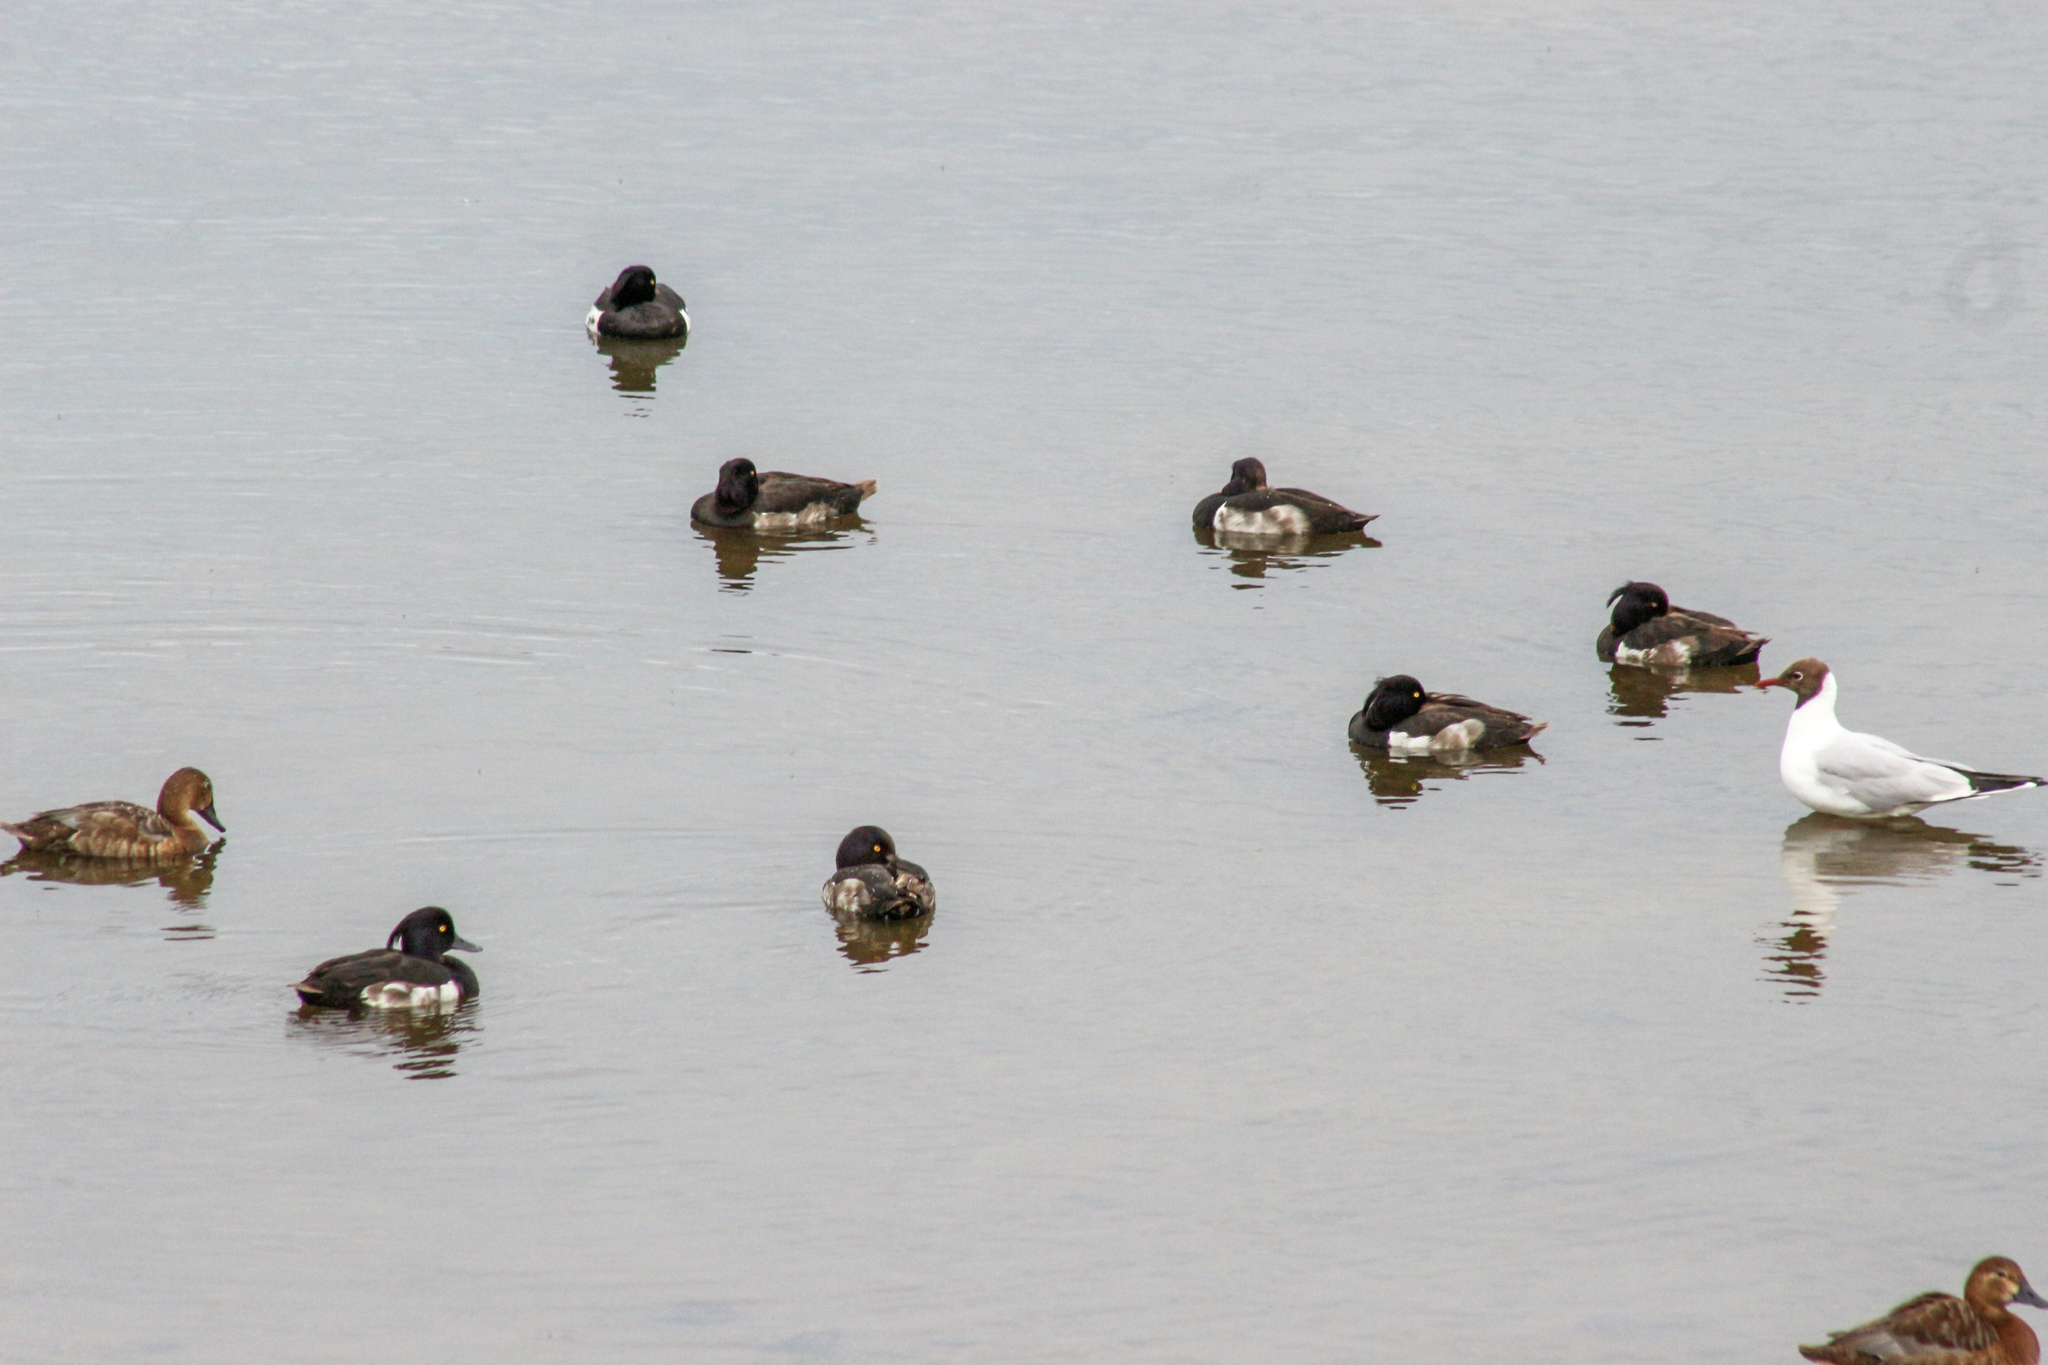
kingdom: Animalia
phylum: Chordata
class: Aves
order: Anseriformes
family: Anatidae
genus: Aythya
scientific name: Aythya fuligula
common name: Tufted duck
